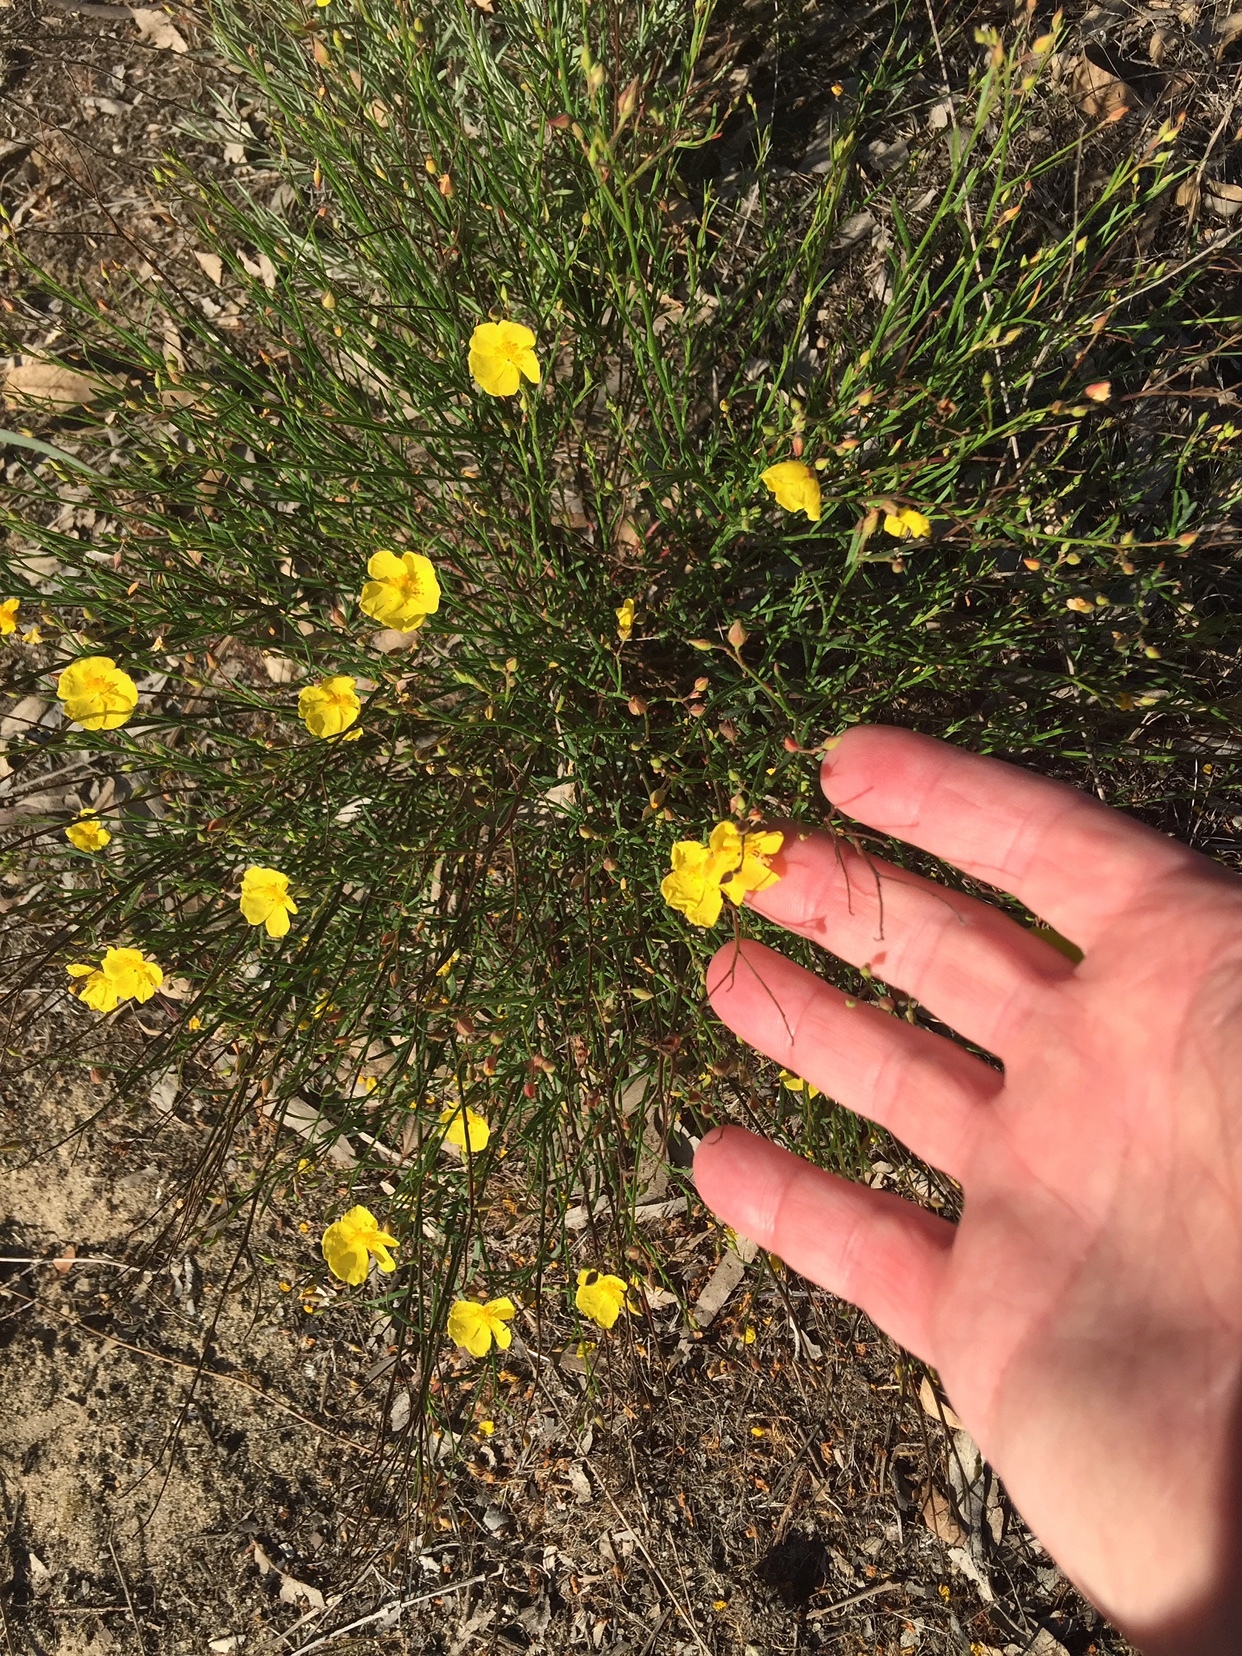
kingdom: Plantae
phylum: Tracheophyta
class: Magnoliopsida
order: Malvales
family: Cistaceae
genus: Crocanthemum
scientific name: Crocanthemum scoparium
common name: Broom-rose
